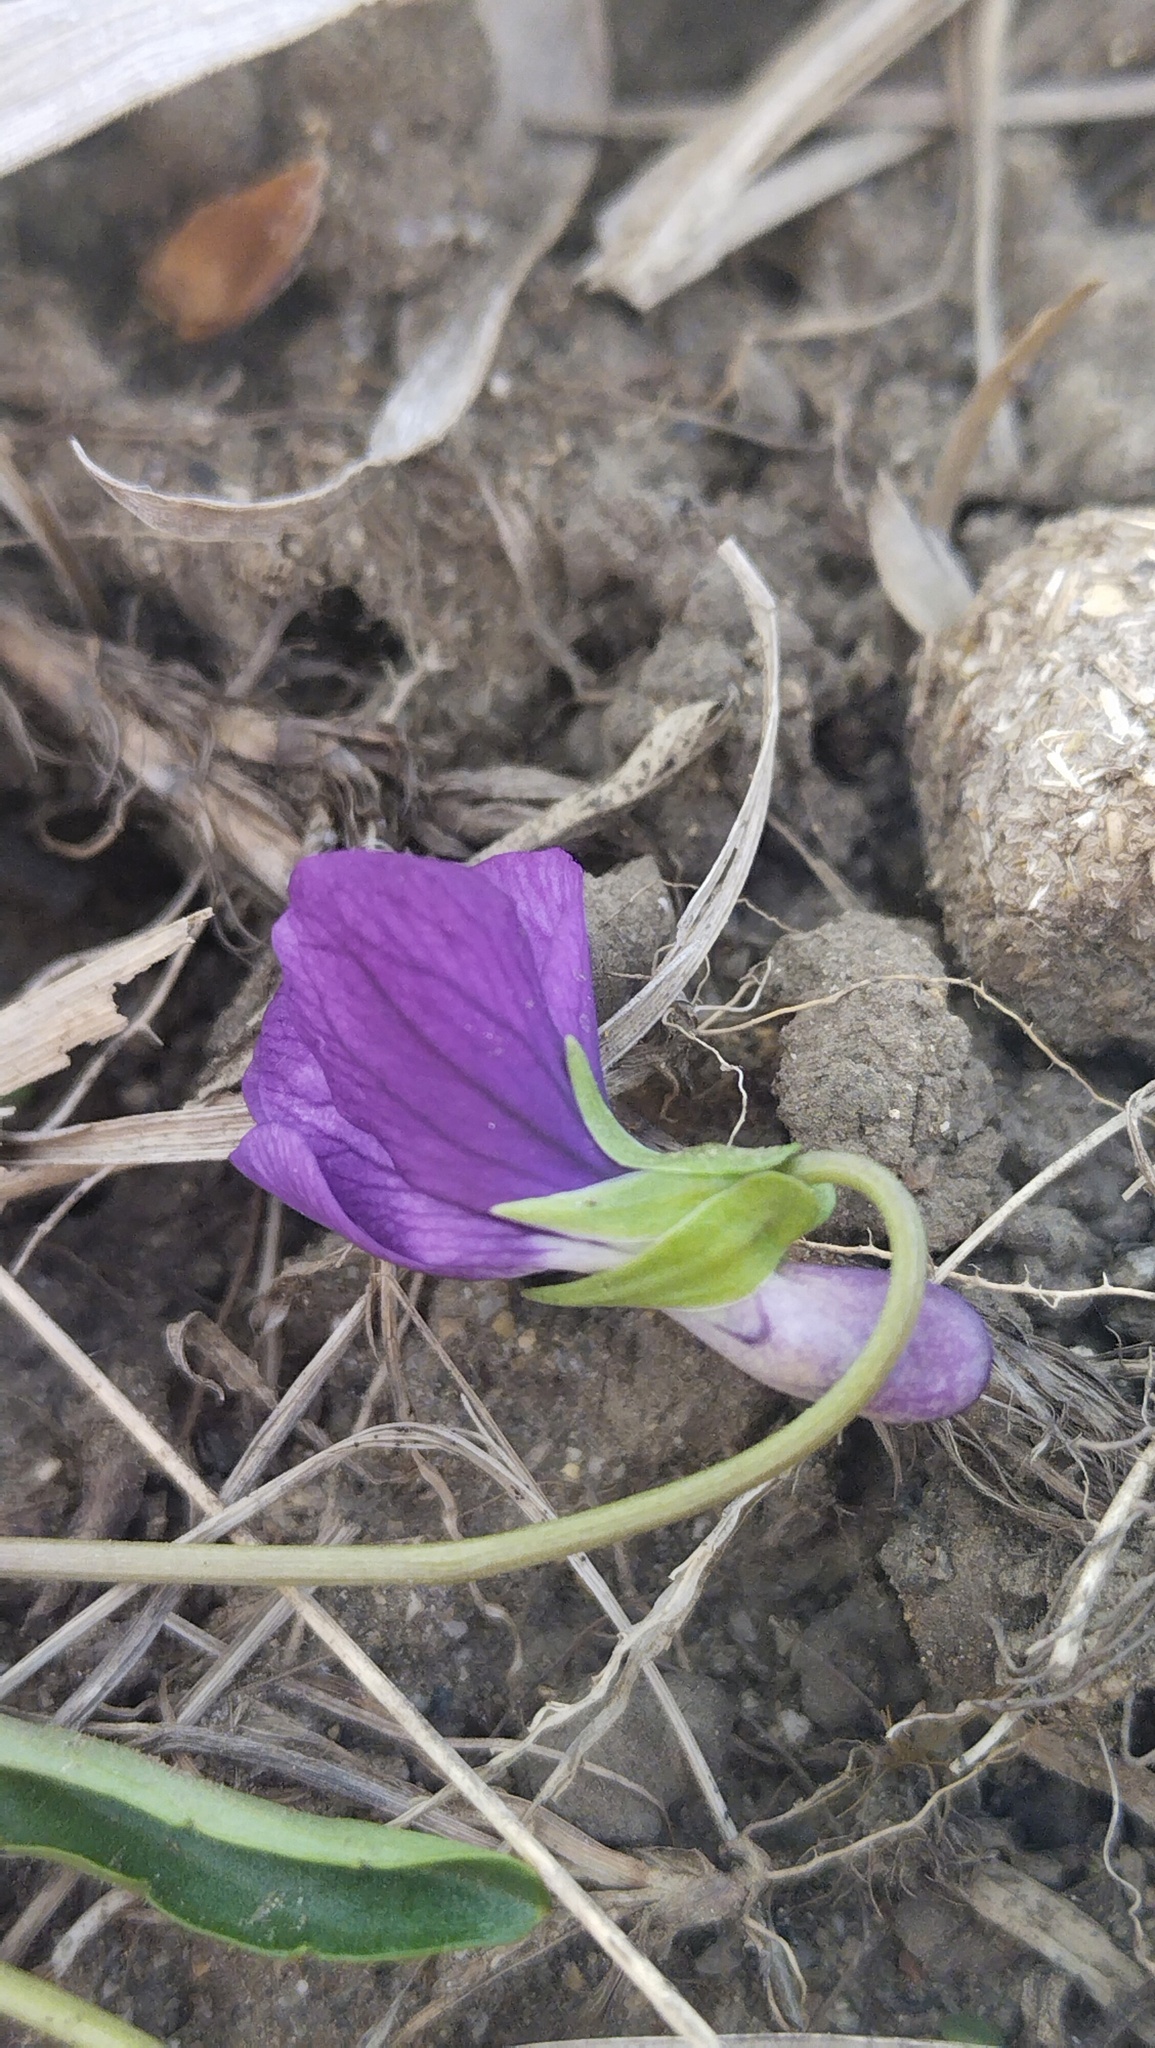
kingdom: Plantae
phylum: Tracheophyta
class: Magnoliopsida
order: Malpighiales
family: Violaceae
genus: Viola
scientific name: Viola mandshurica
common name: Manchuria violet
